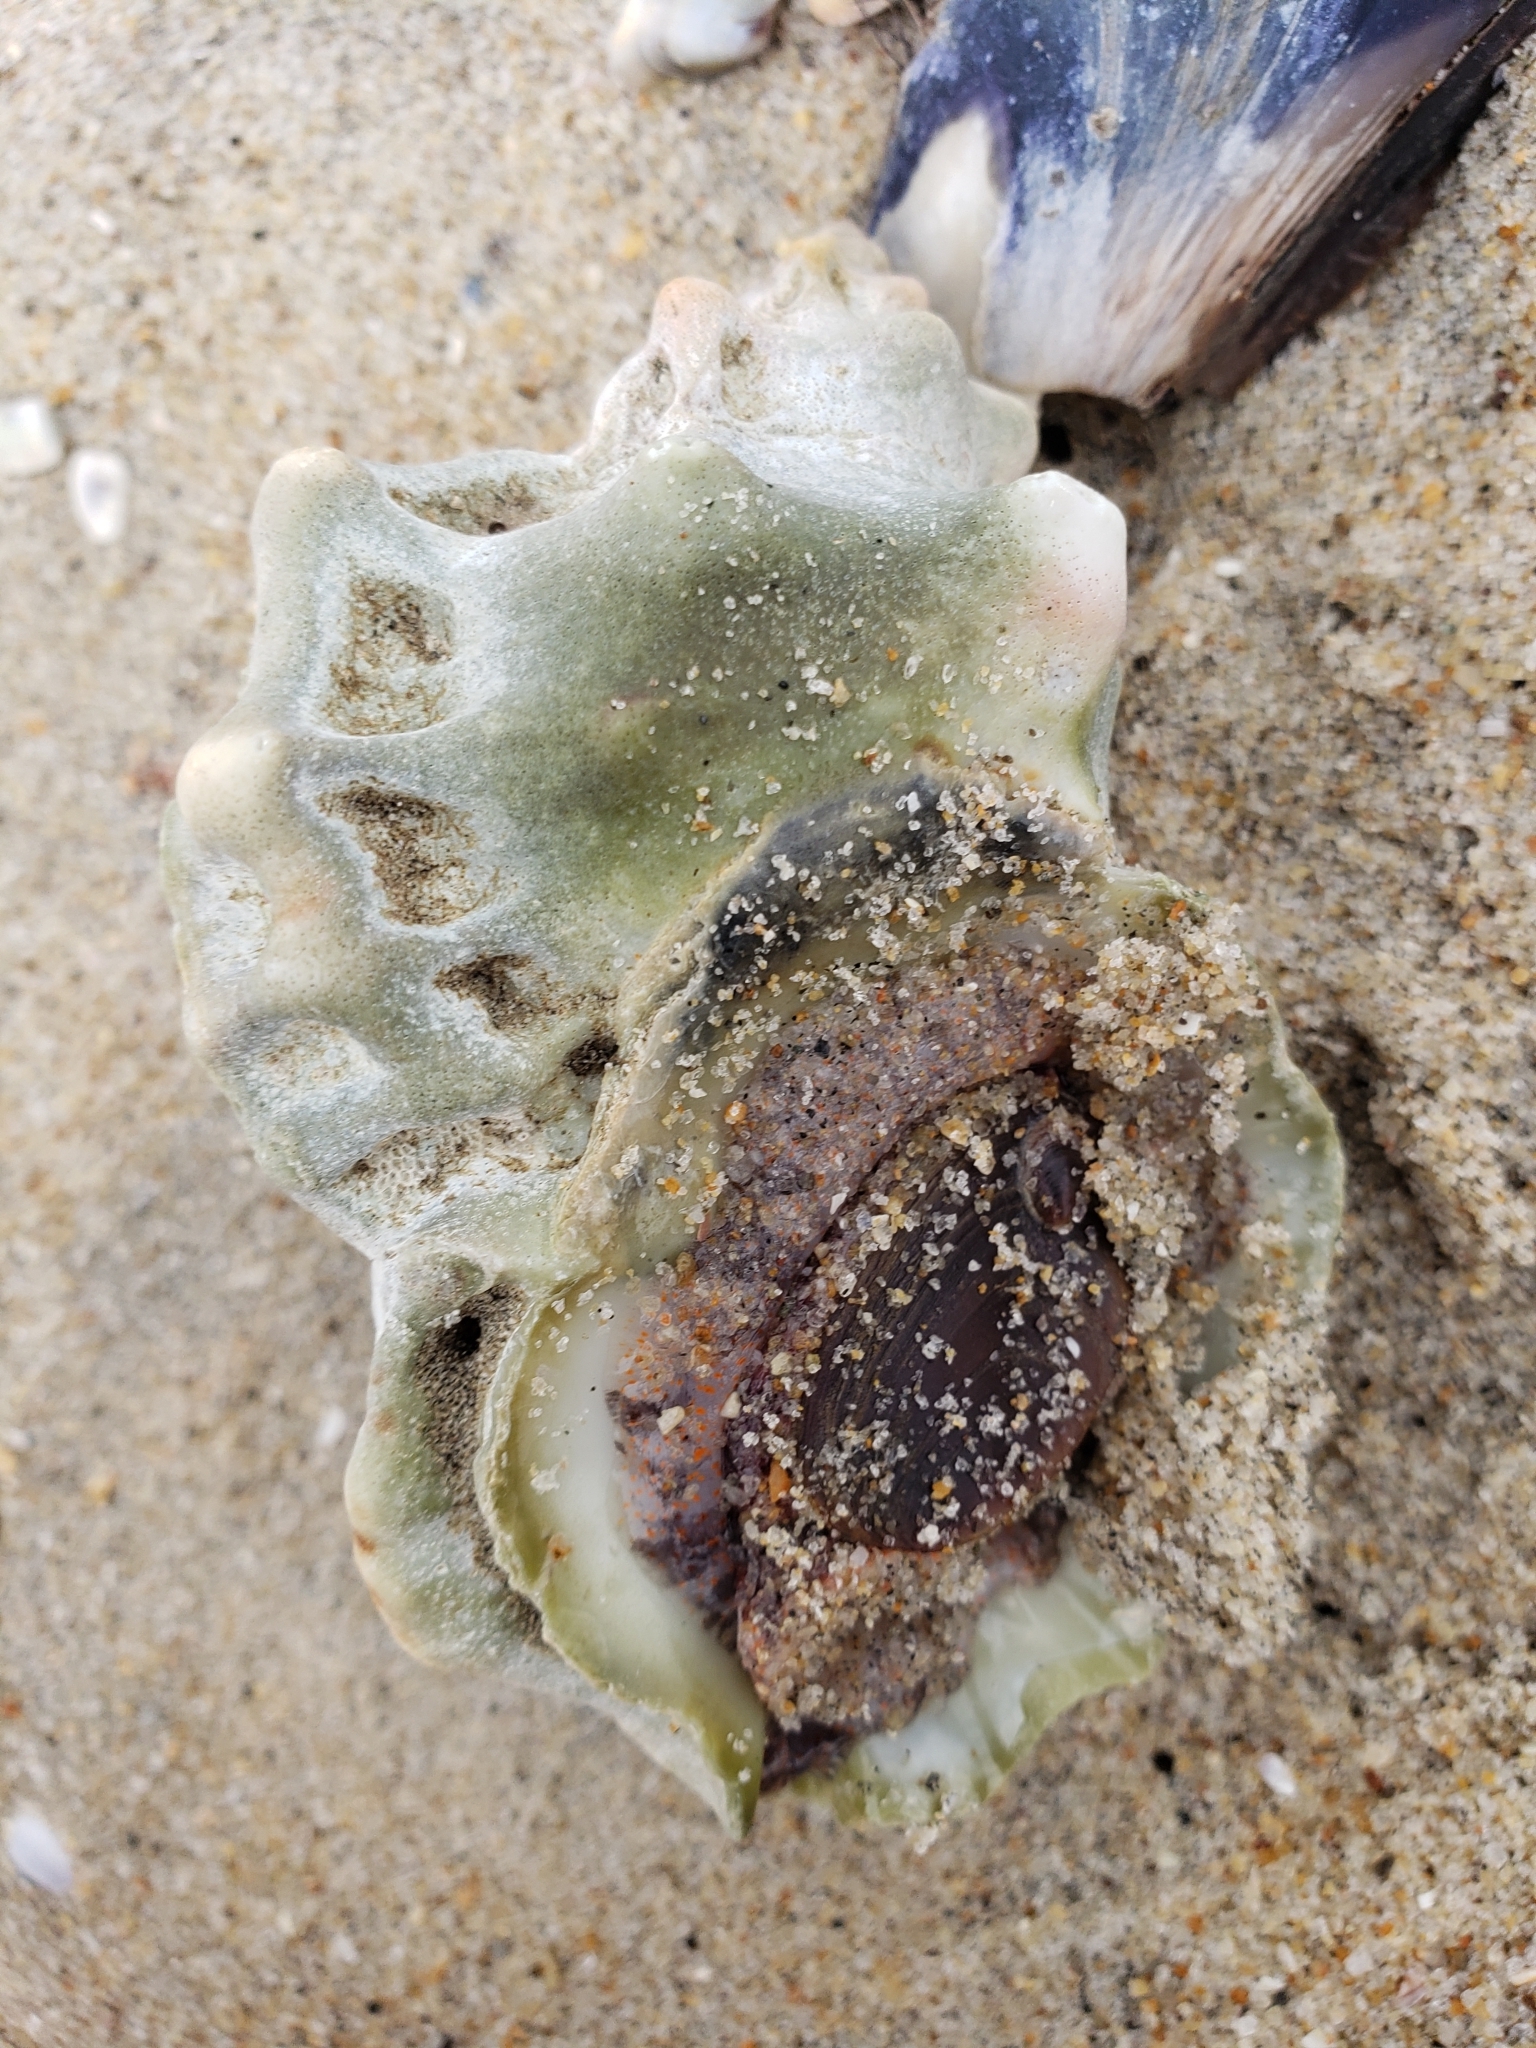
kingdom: Animalia
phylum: Mollusca
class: Gastropoda
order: Littorinimorpha
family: Bursidae
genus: Crossata
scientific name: Crossata californica
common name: California frogsnail
